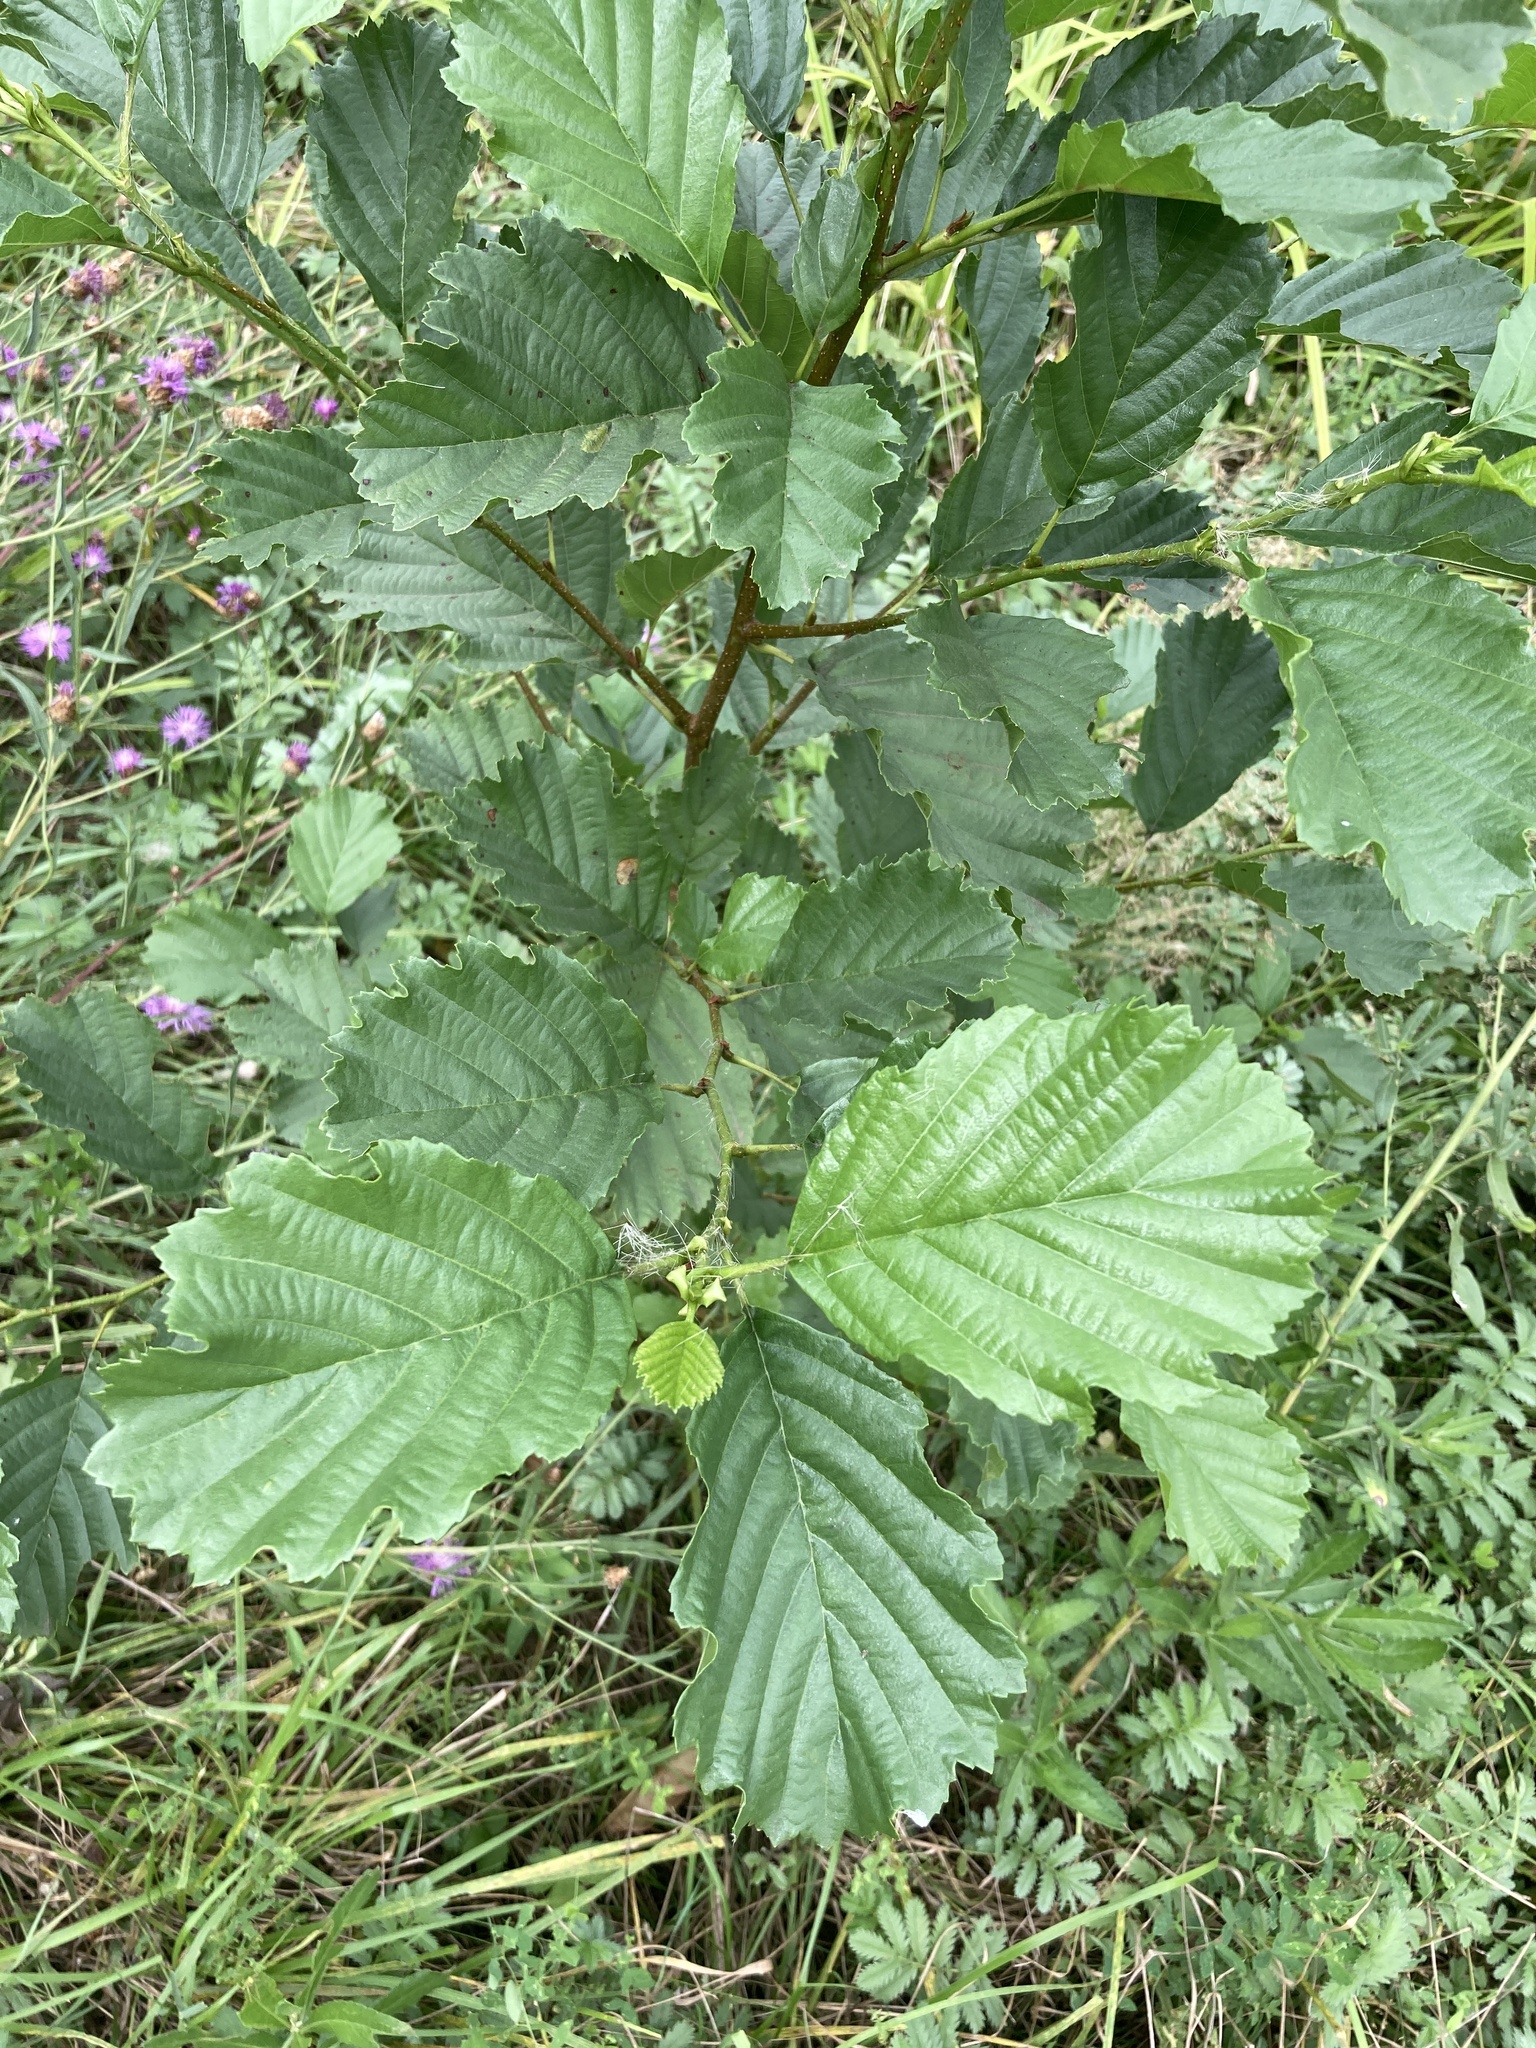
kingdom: Plantae
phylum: Tracheophyta
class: Magnoliopsida
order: Fagales
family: Betulaceae
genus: Alnus
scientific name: Alnus glutinosa
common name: Black alder
